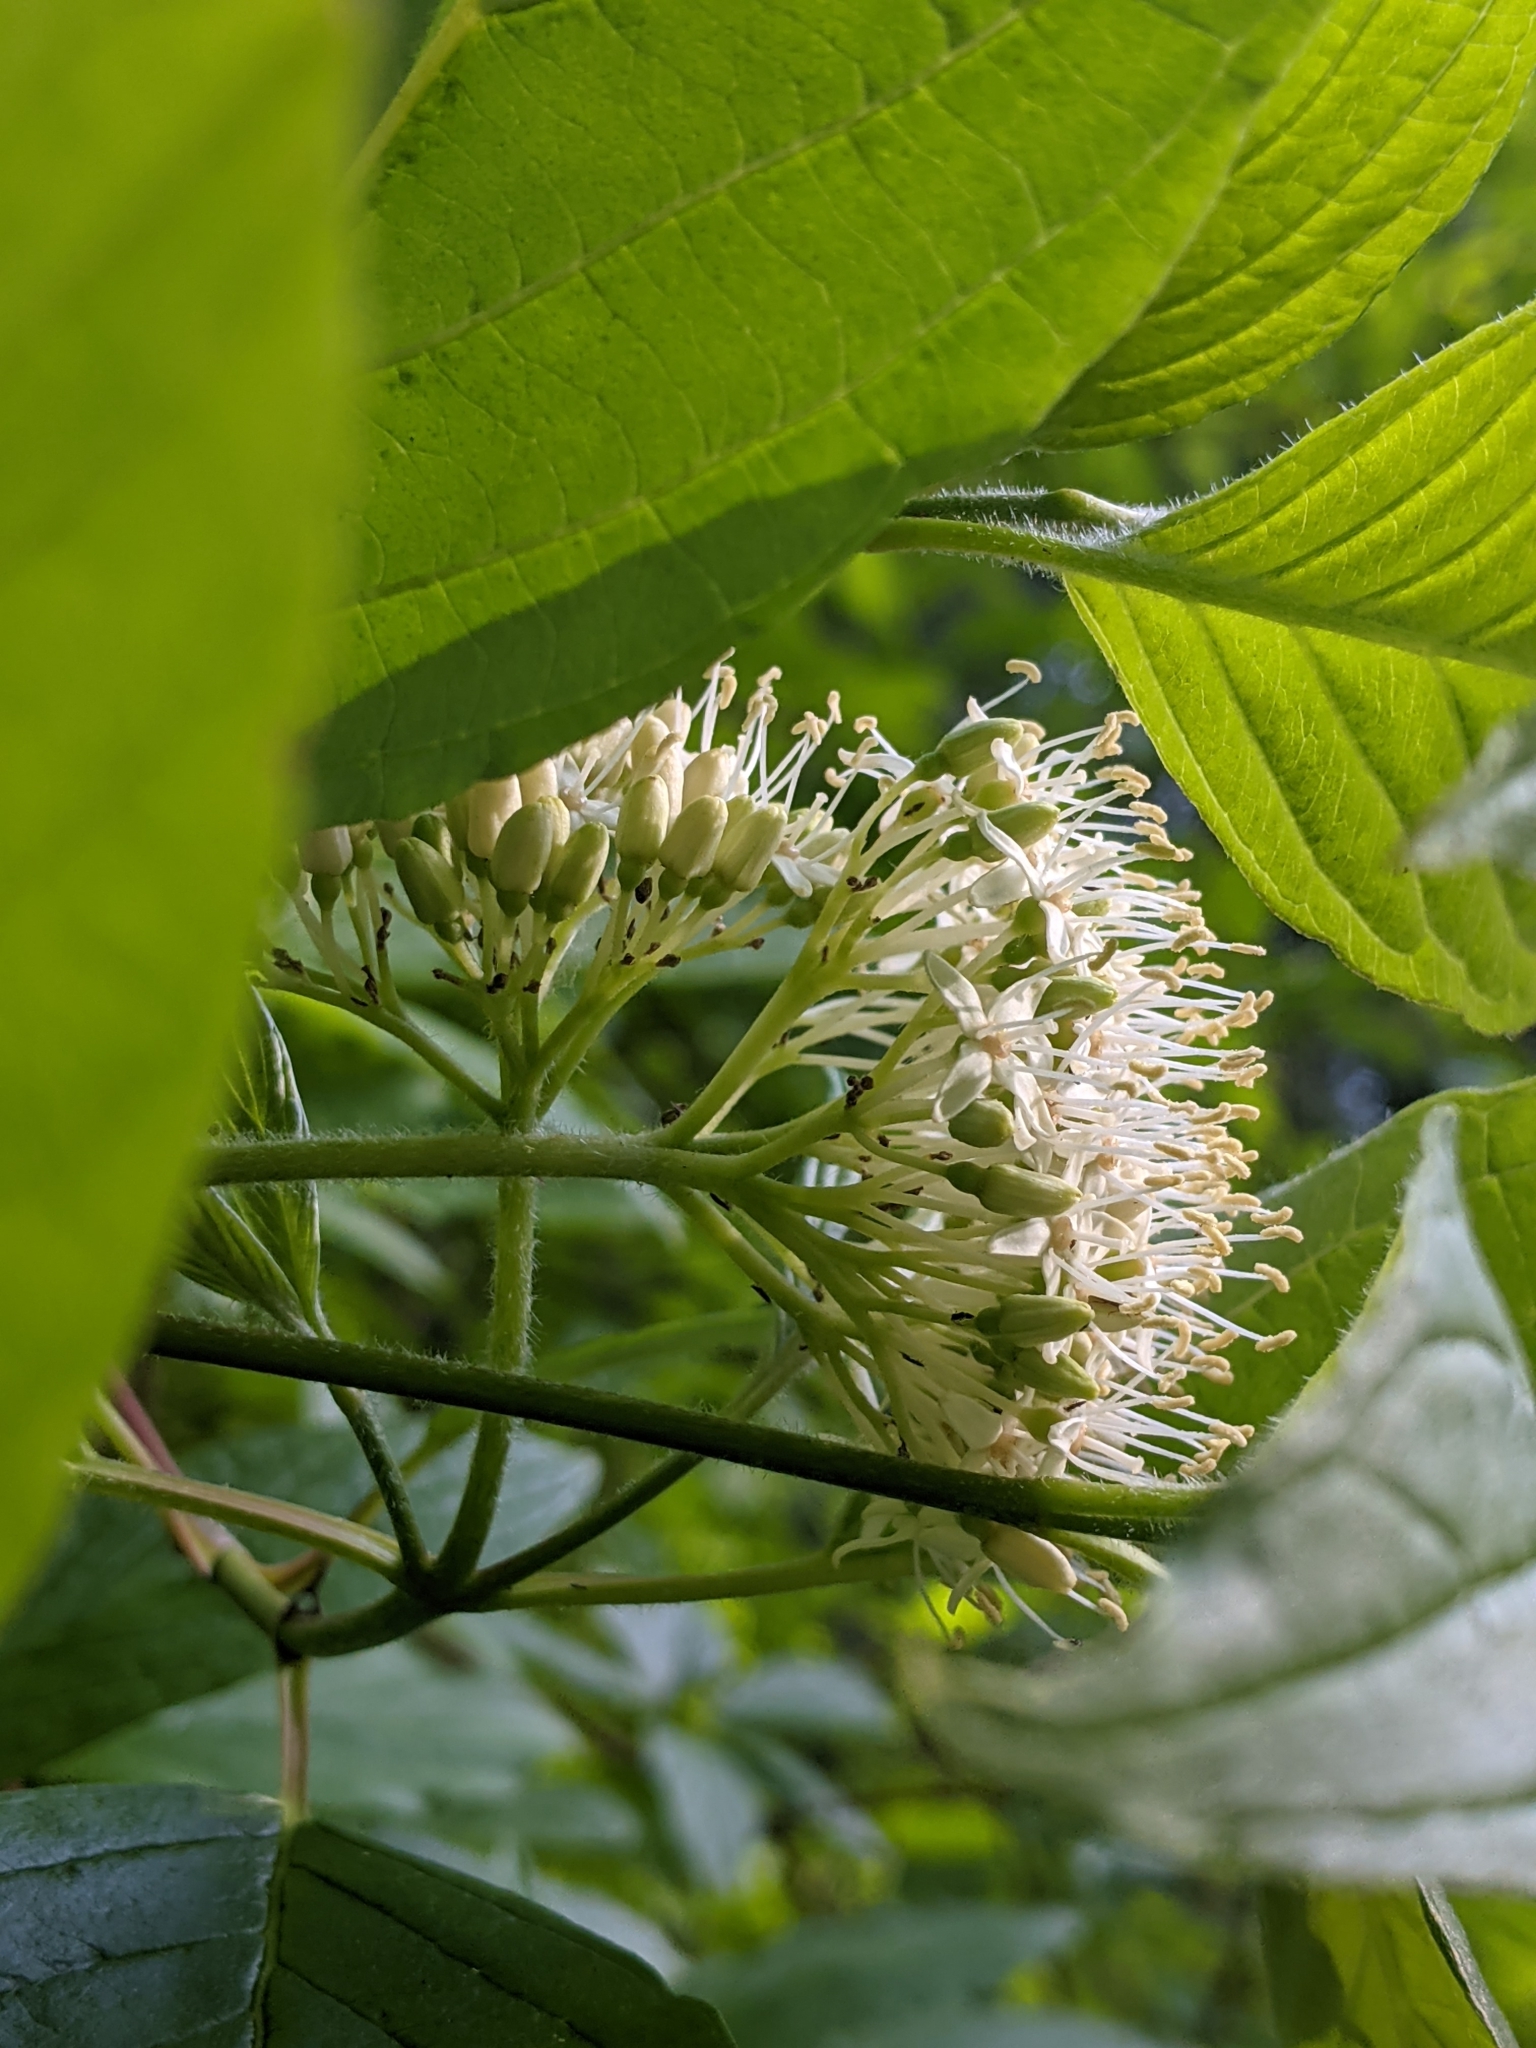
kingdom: Plantae
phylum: Tracheophyta
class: Magnoliopsida
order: Cornales
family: Cornaceae
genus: Cornus
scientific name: Cornus sericea
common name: Red-osier dogwood
